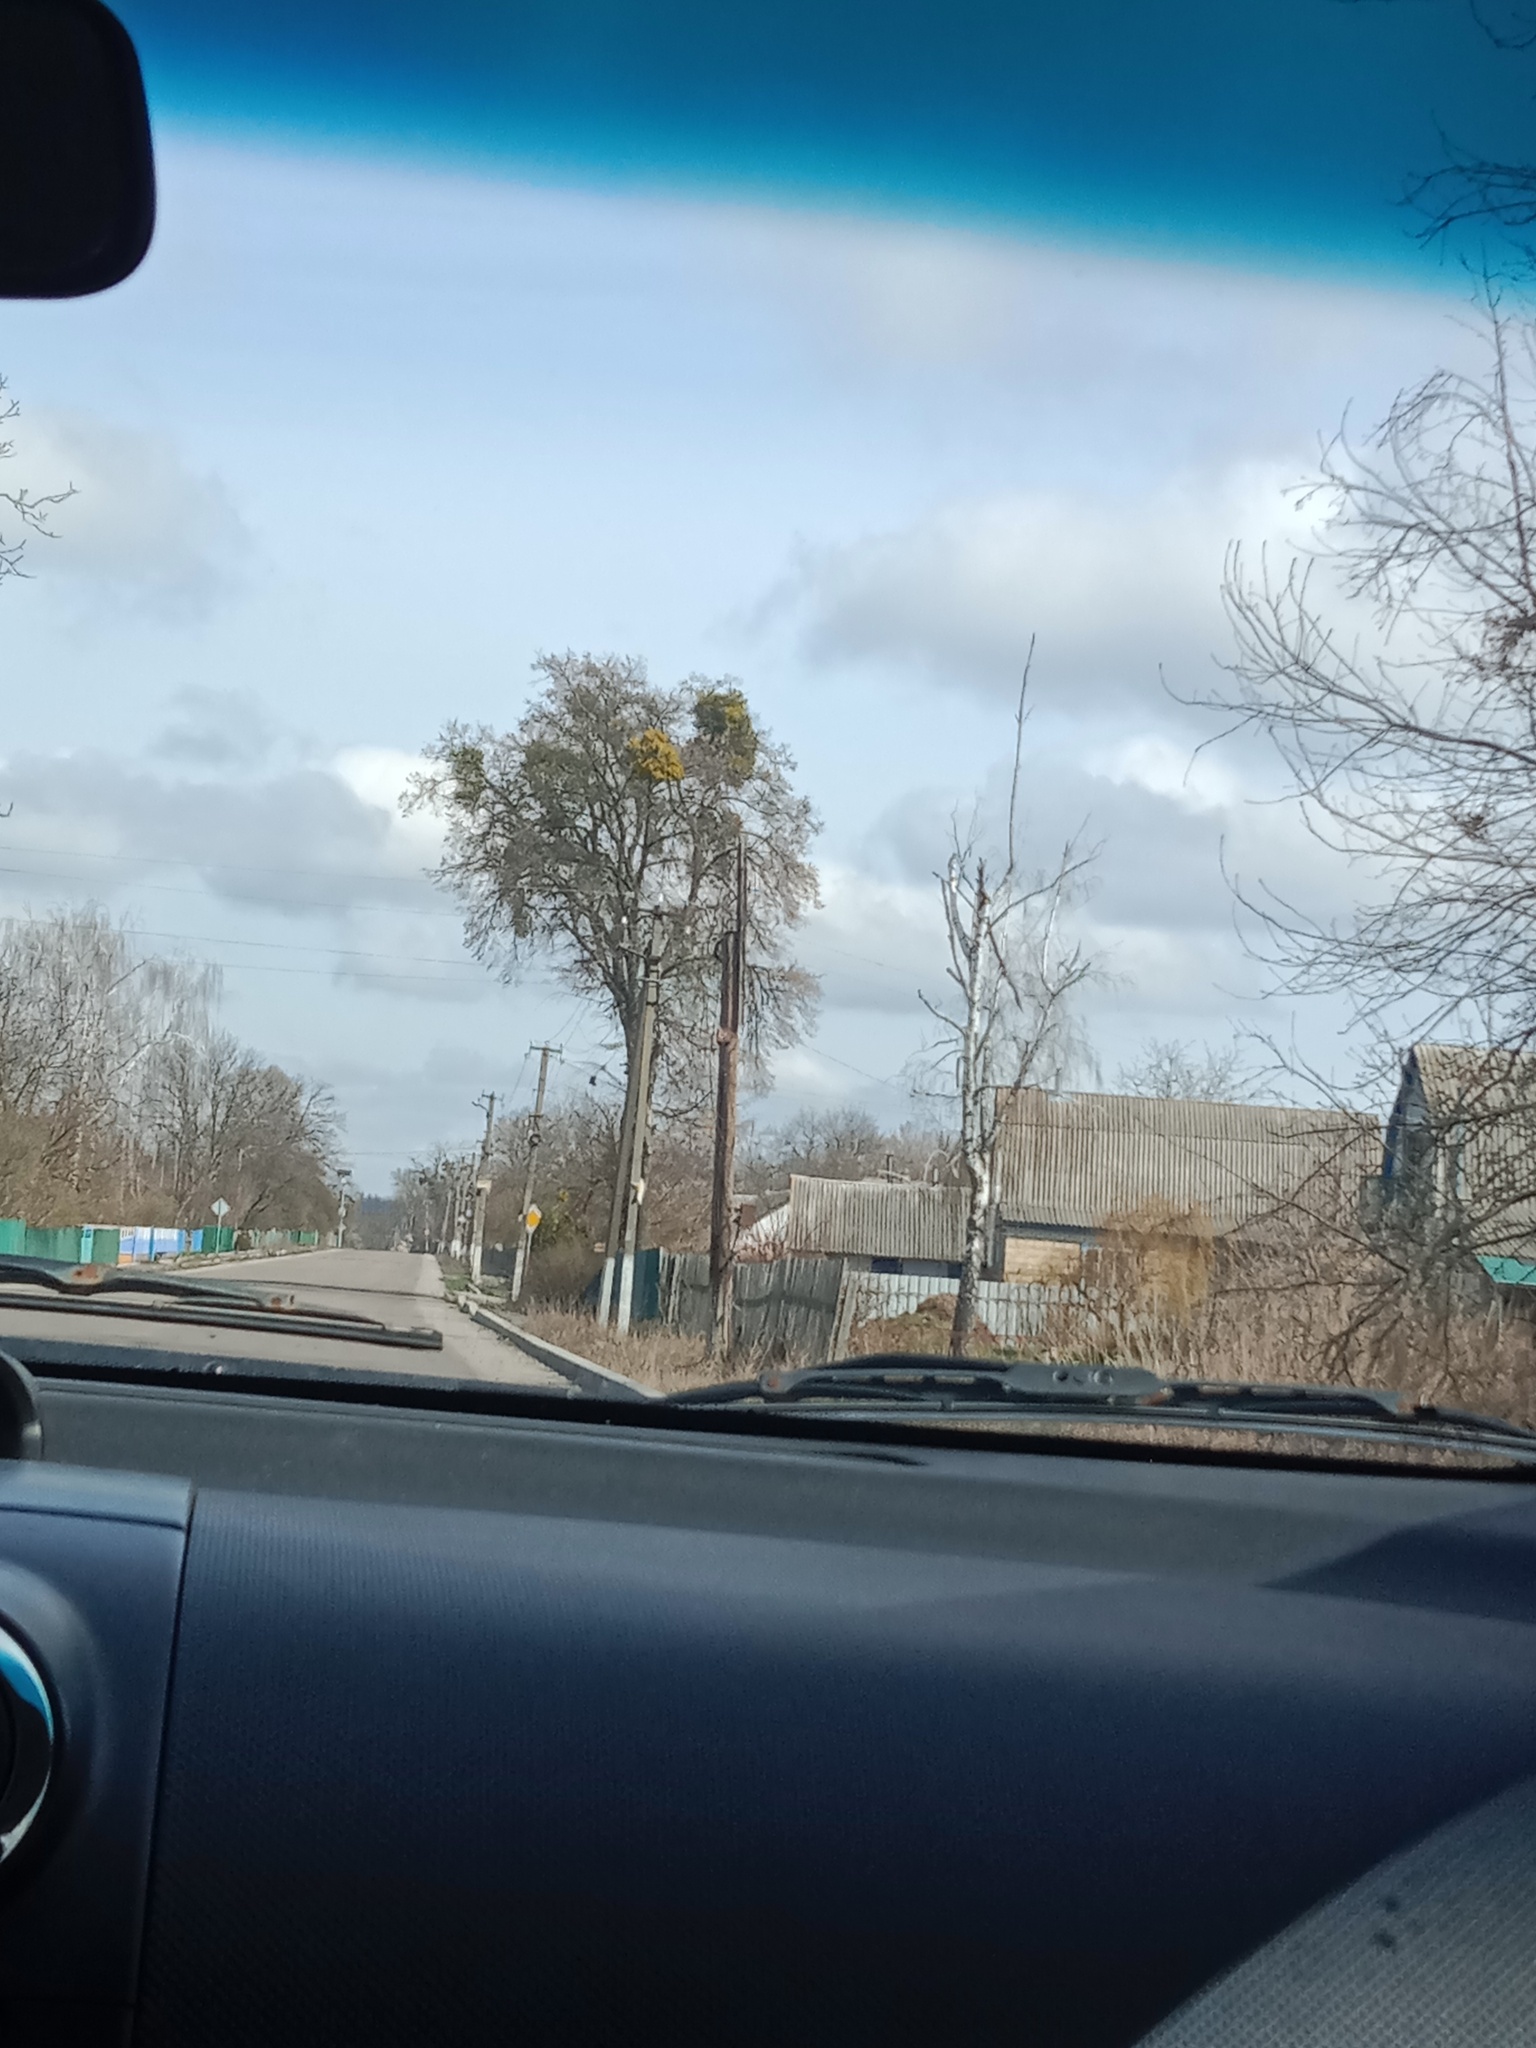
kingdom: Plantae
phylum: Tracheophyta
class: Magnoliopsida
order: Santalales
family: Viscaceae
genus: Viscum
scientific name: Viscum album
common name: Mistletoe
